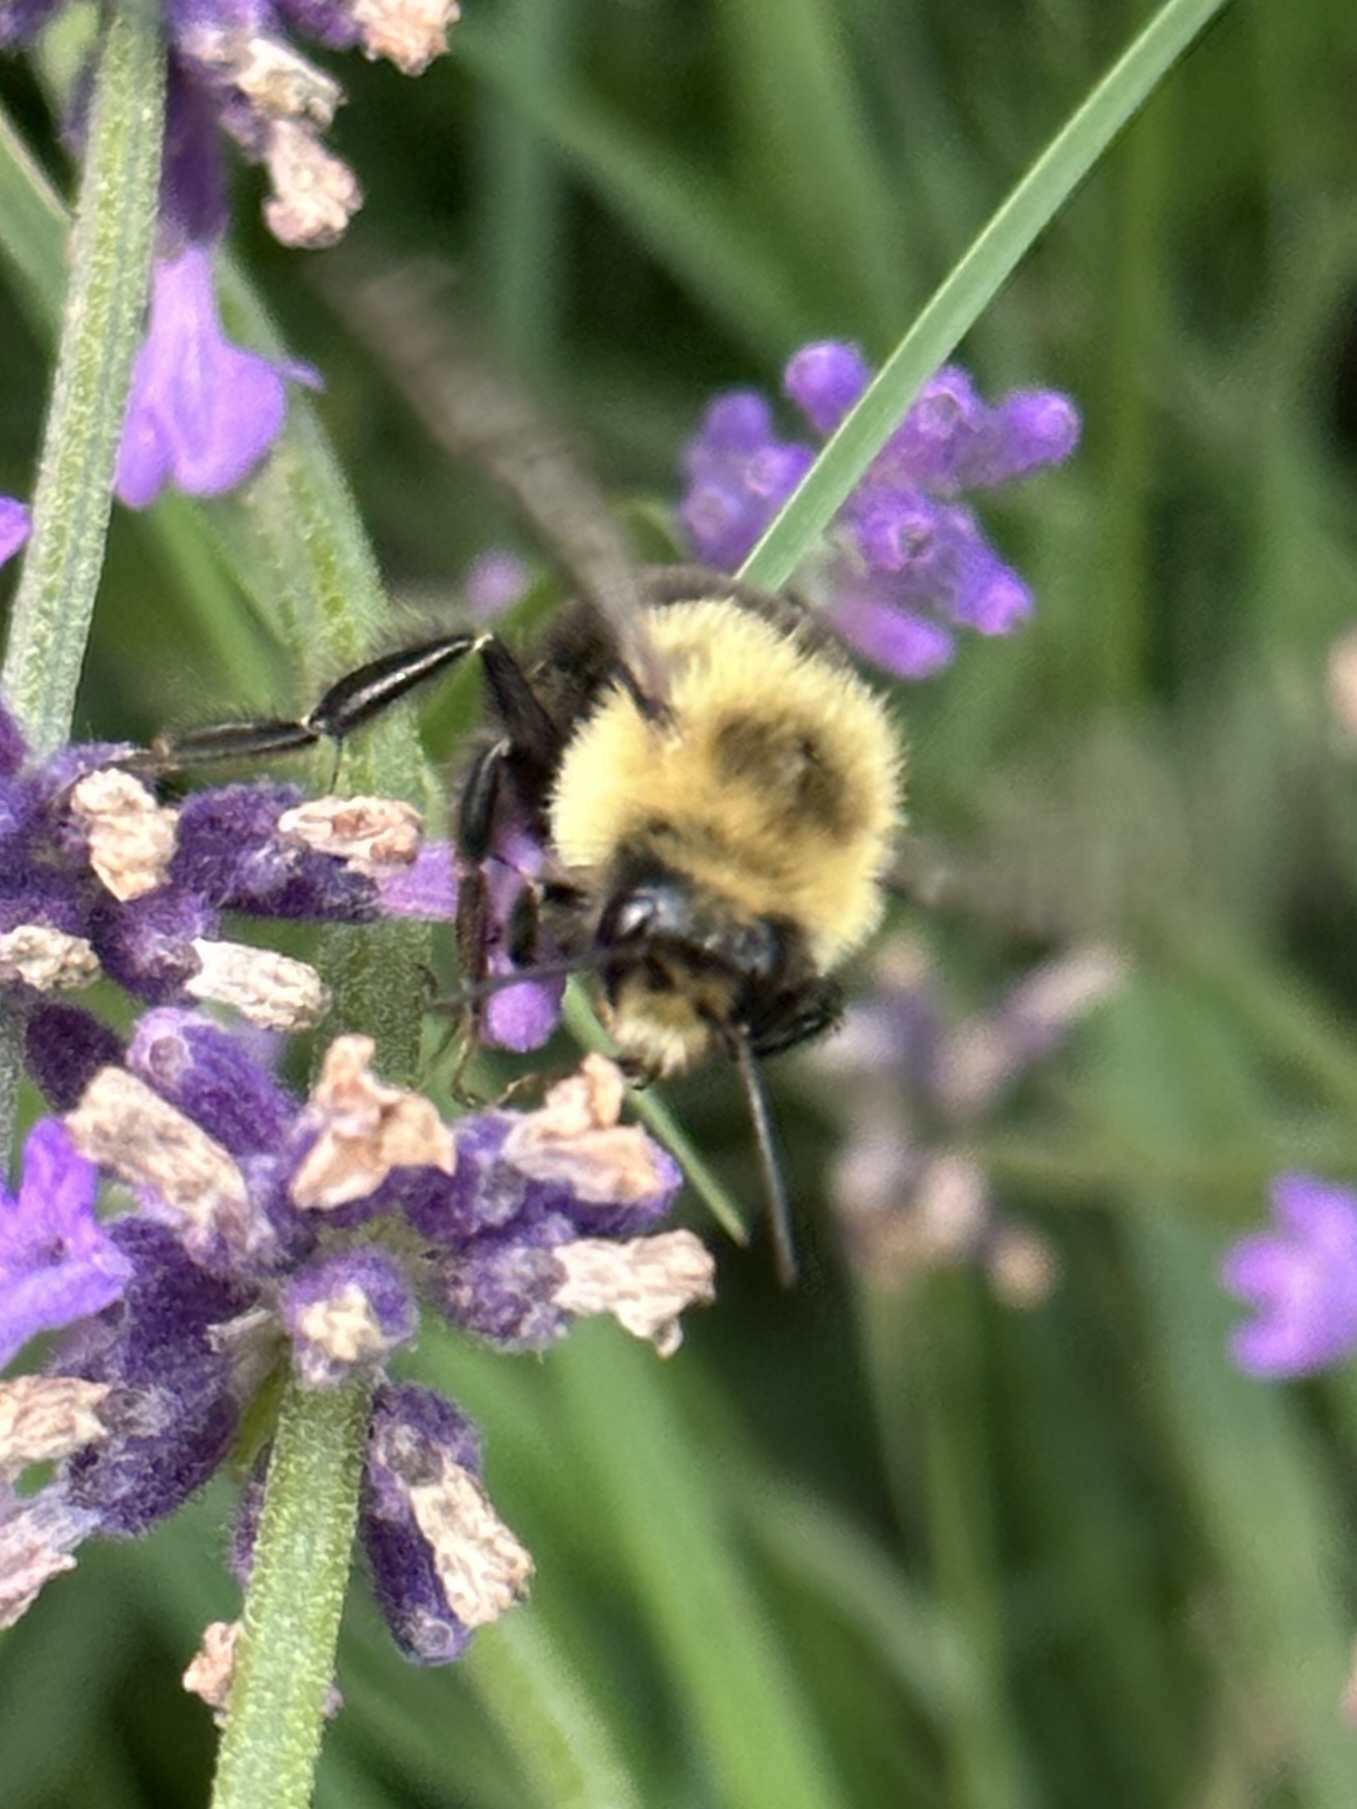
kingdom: Animalia
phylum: Arthropoda
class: Insecta
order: Hymenoptera
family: Apidae
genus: Bombus
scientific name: Bombus impatiens
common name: Common eastern bumble bee
